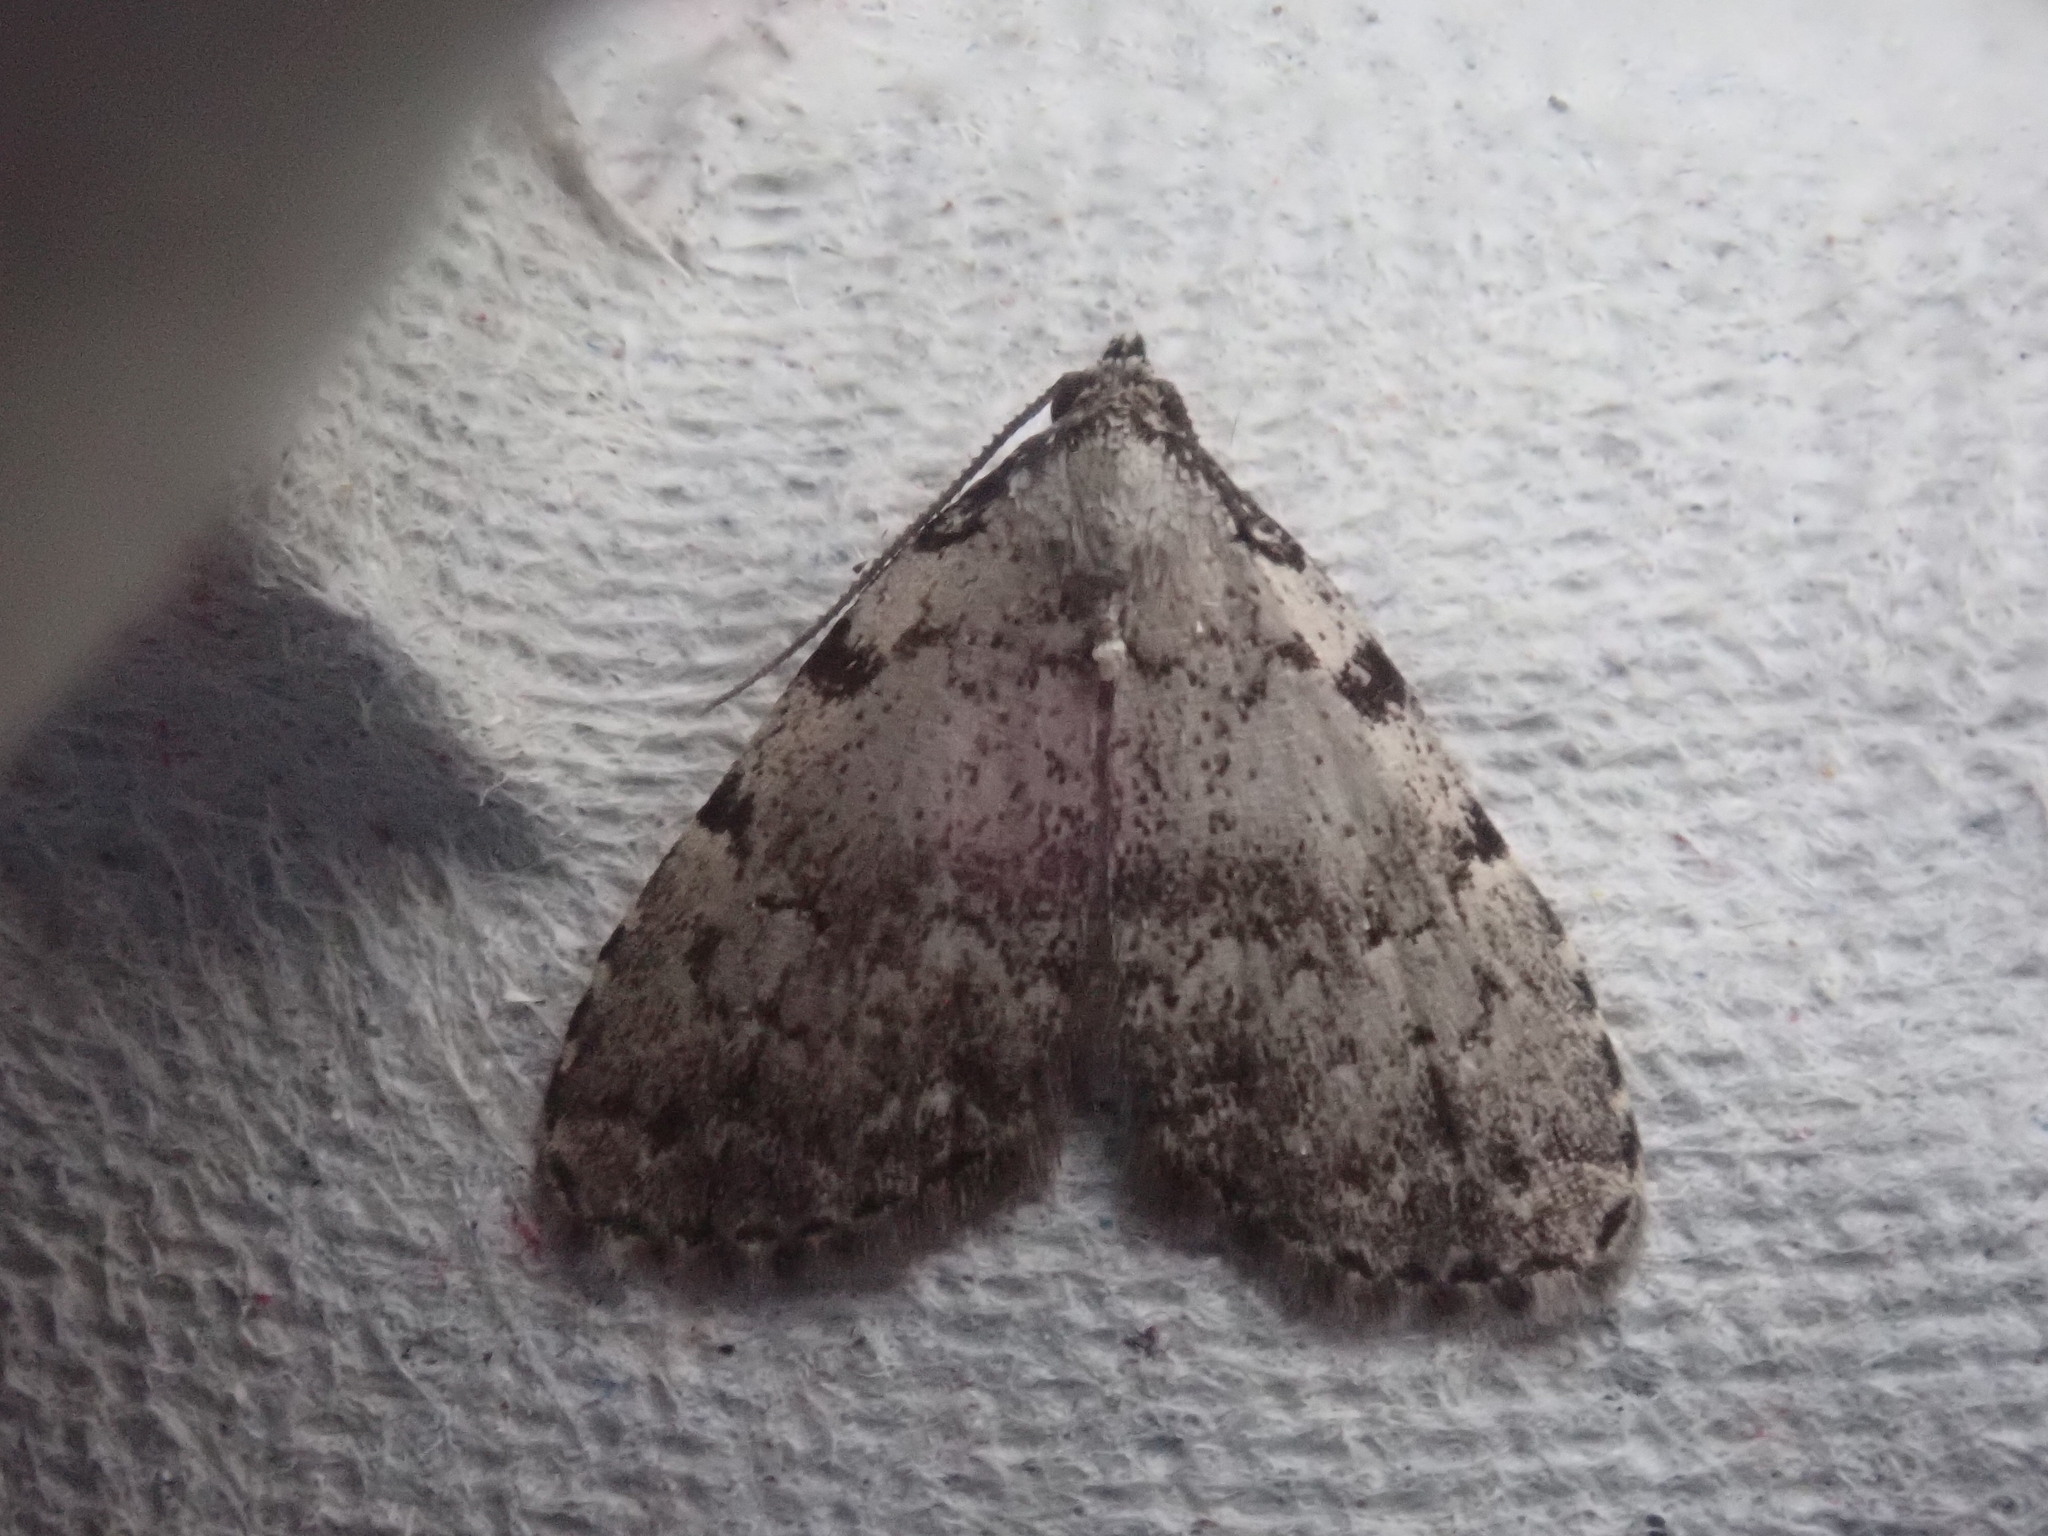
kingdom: Animalia
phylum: Arthropoda
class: Insecta
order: Lepidoptera
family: Erebidae
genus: Dyspyralis
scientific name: Dyspyralis puncticosta
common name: Spot-edged dyspyralis moth
